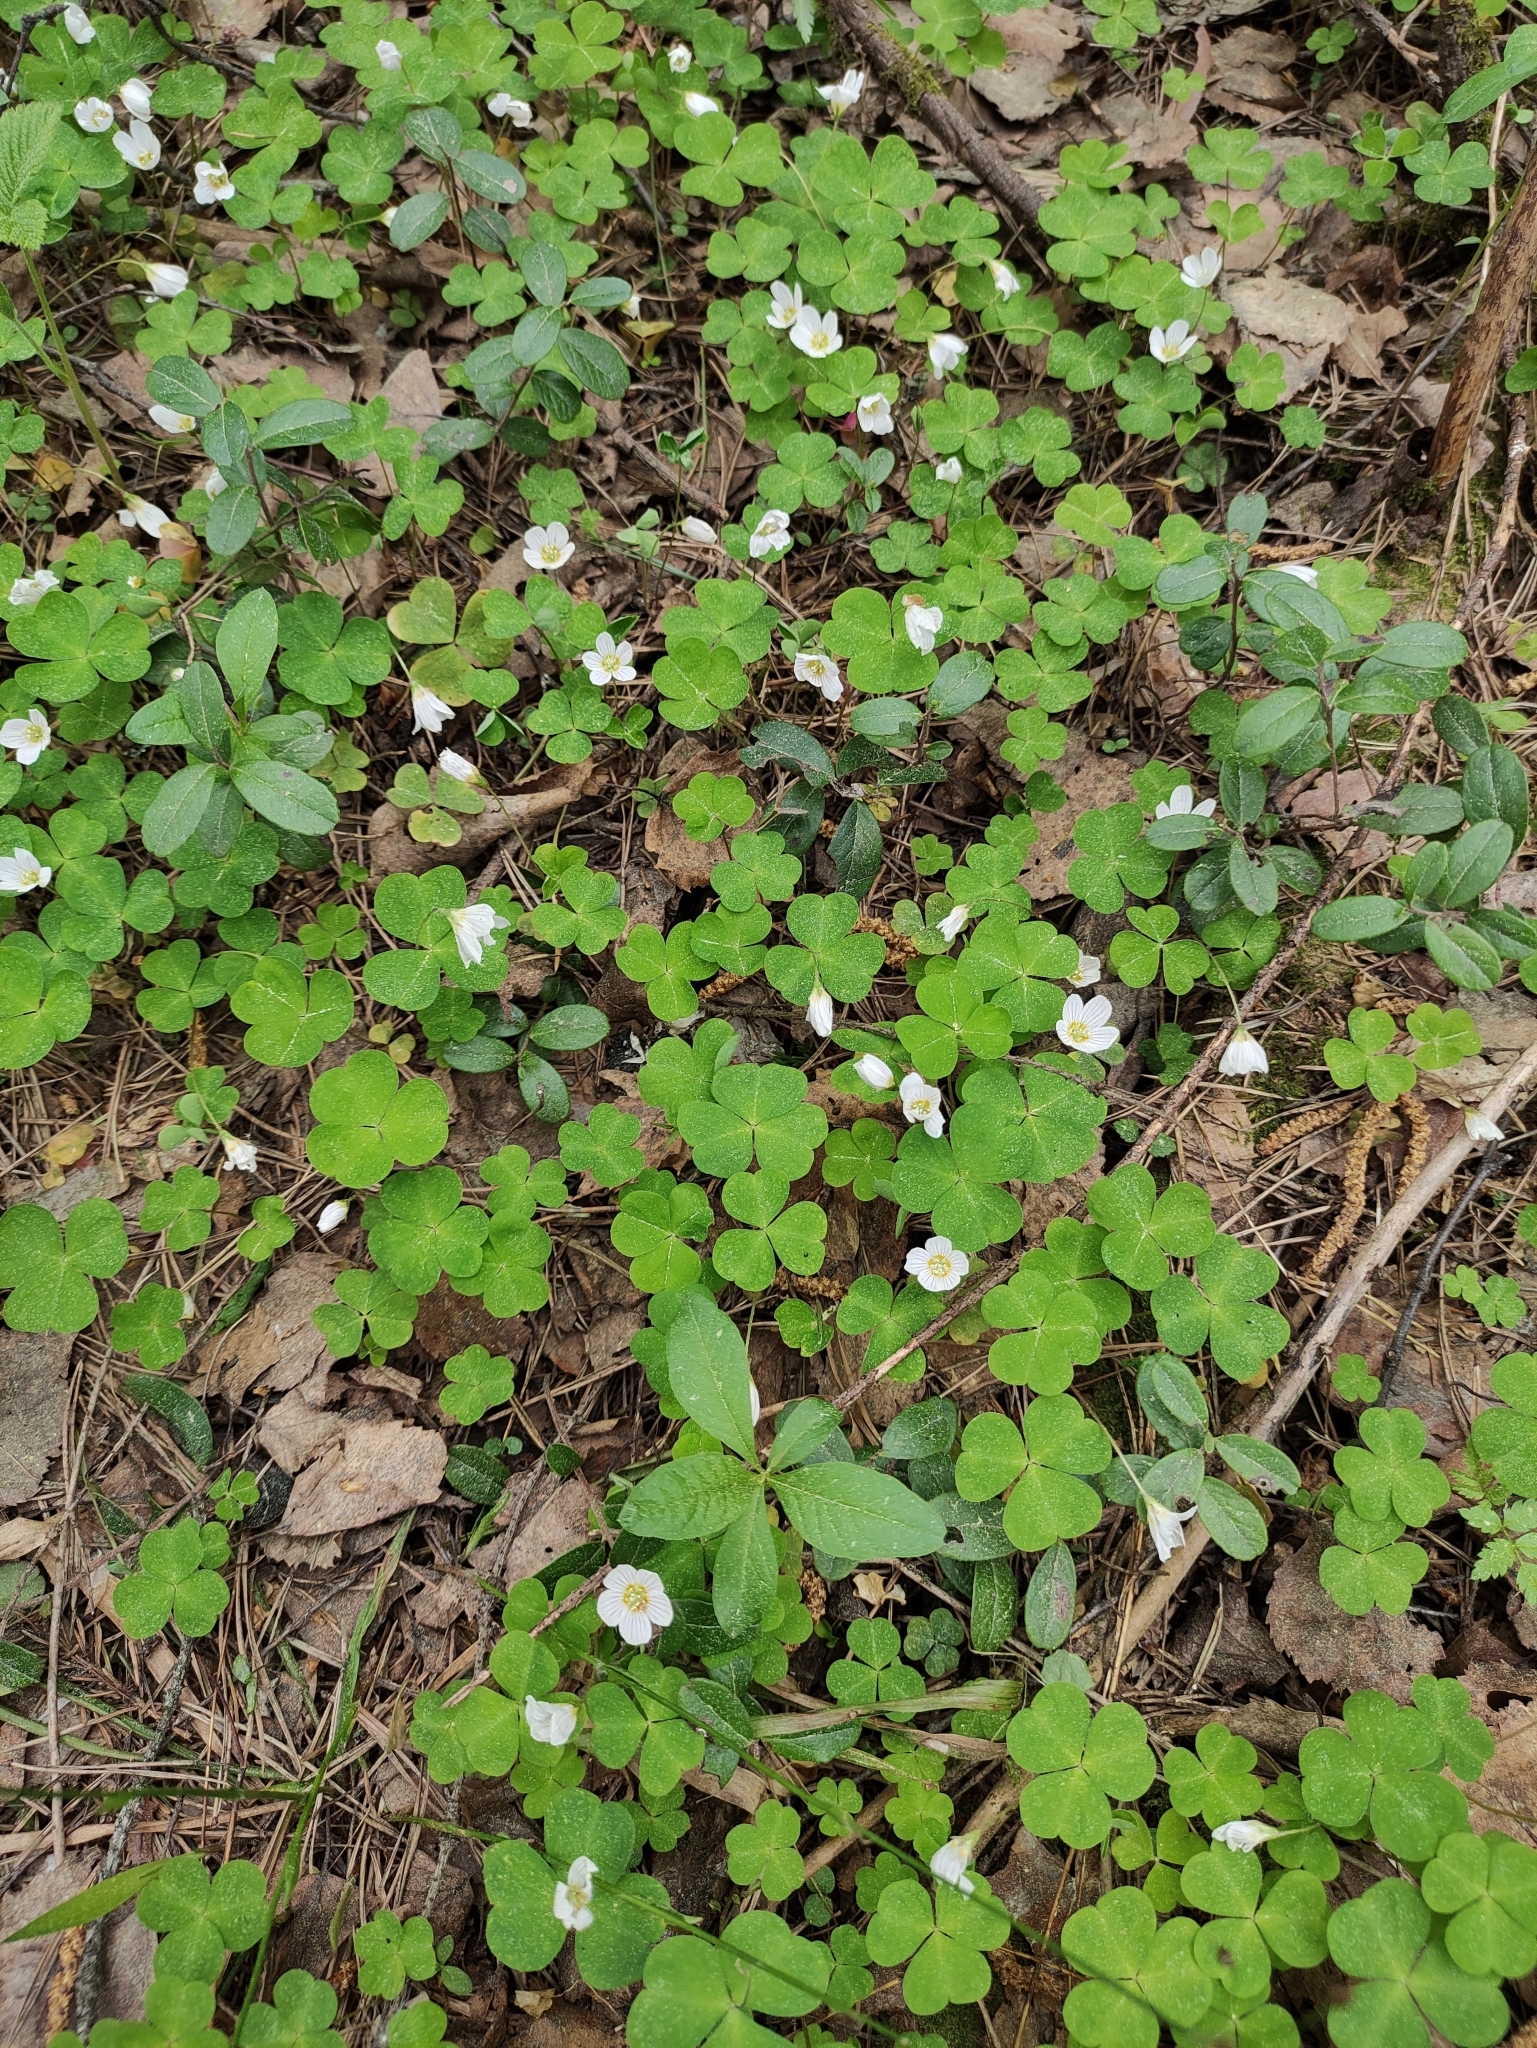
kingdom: Plantae
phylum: Tracheophyta
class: Magnoliopsida
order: Oxalidales
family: Oxalidaceae
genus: Oxalis
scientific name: Oxalis acetosella
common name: Wood-sorrel
